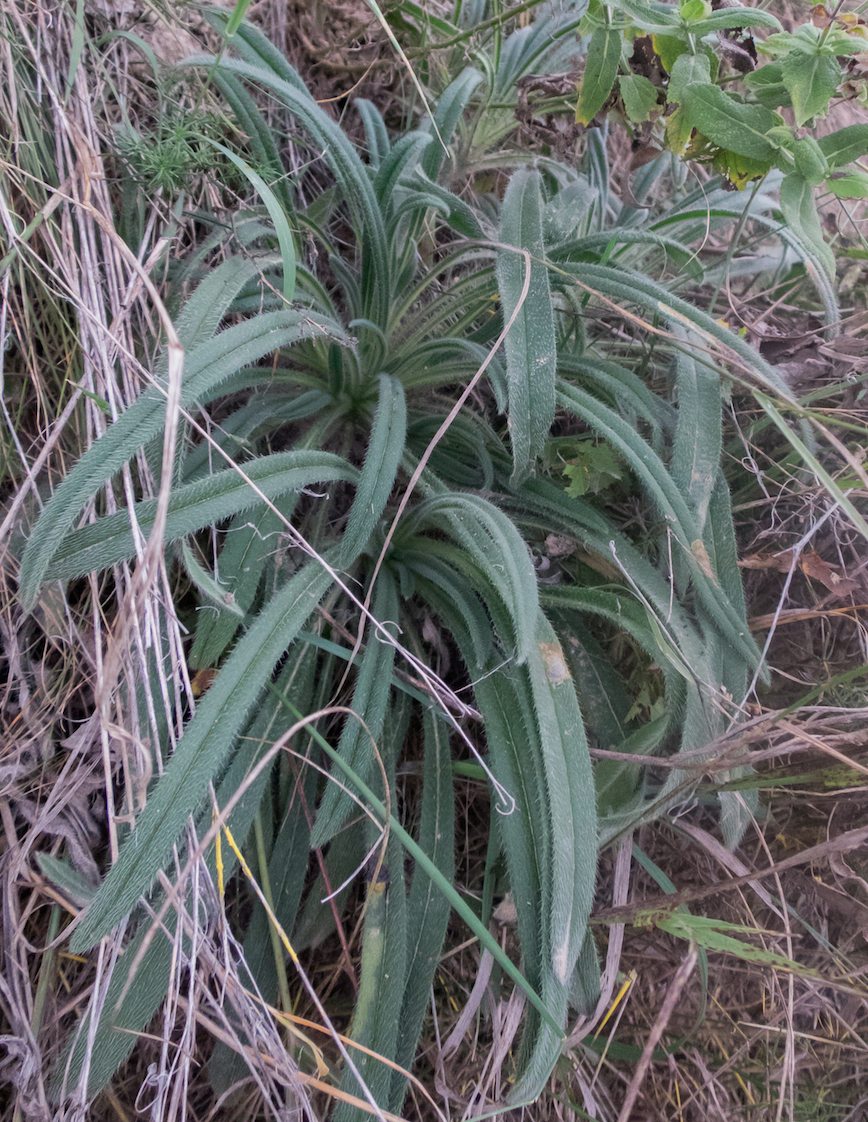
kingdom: Plantae
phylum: Tracheophyta
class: Magnoliopsida
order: Boraginales
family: Boraginaceae
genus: Onosma
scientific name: Onosma arenaria
